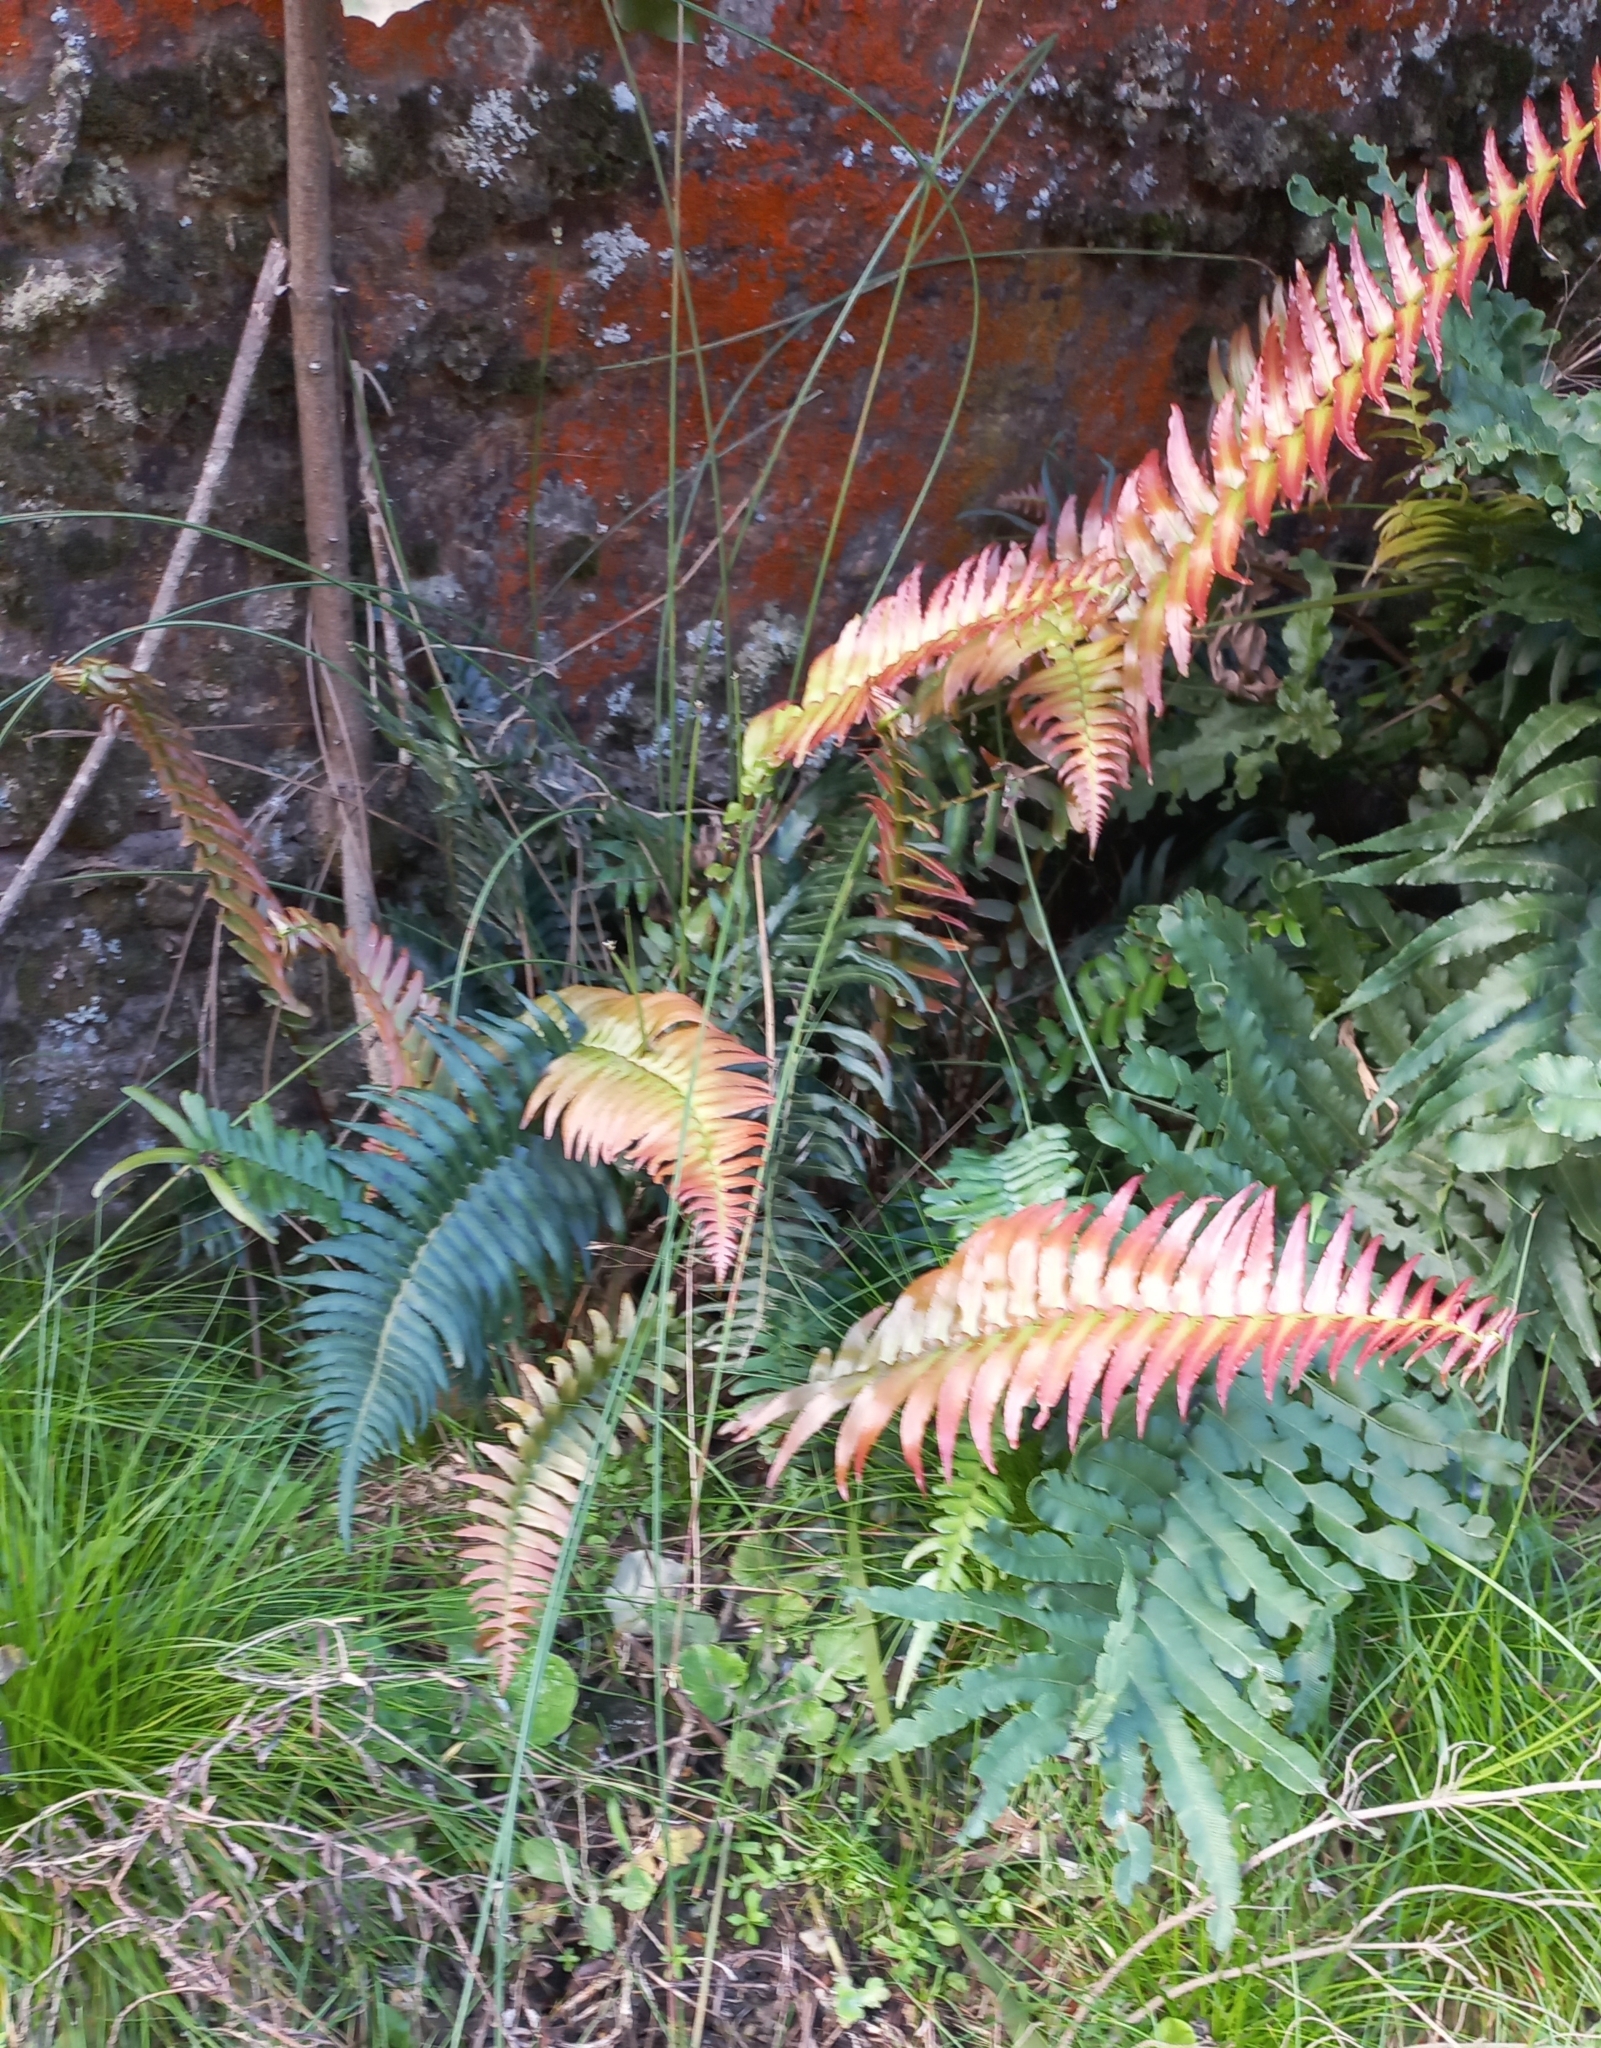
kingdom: Plantae
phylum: Tracheophyta
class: Polypodiopsida
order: Polypodiales
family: Blechnaceae
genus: Lomaridium
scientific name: Lomaridium attenuatum
